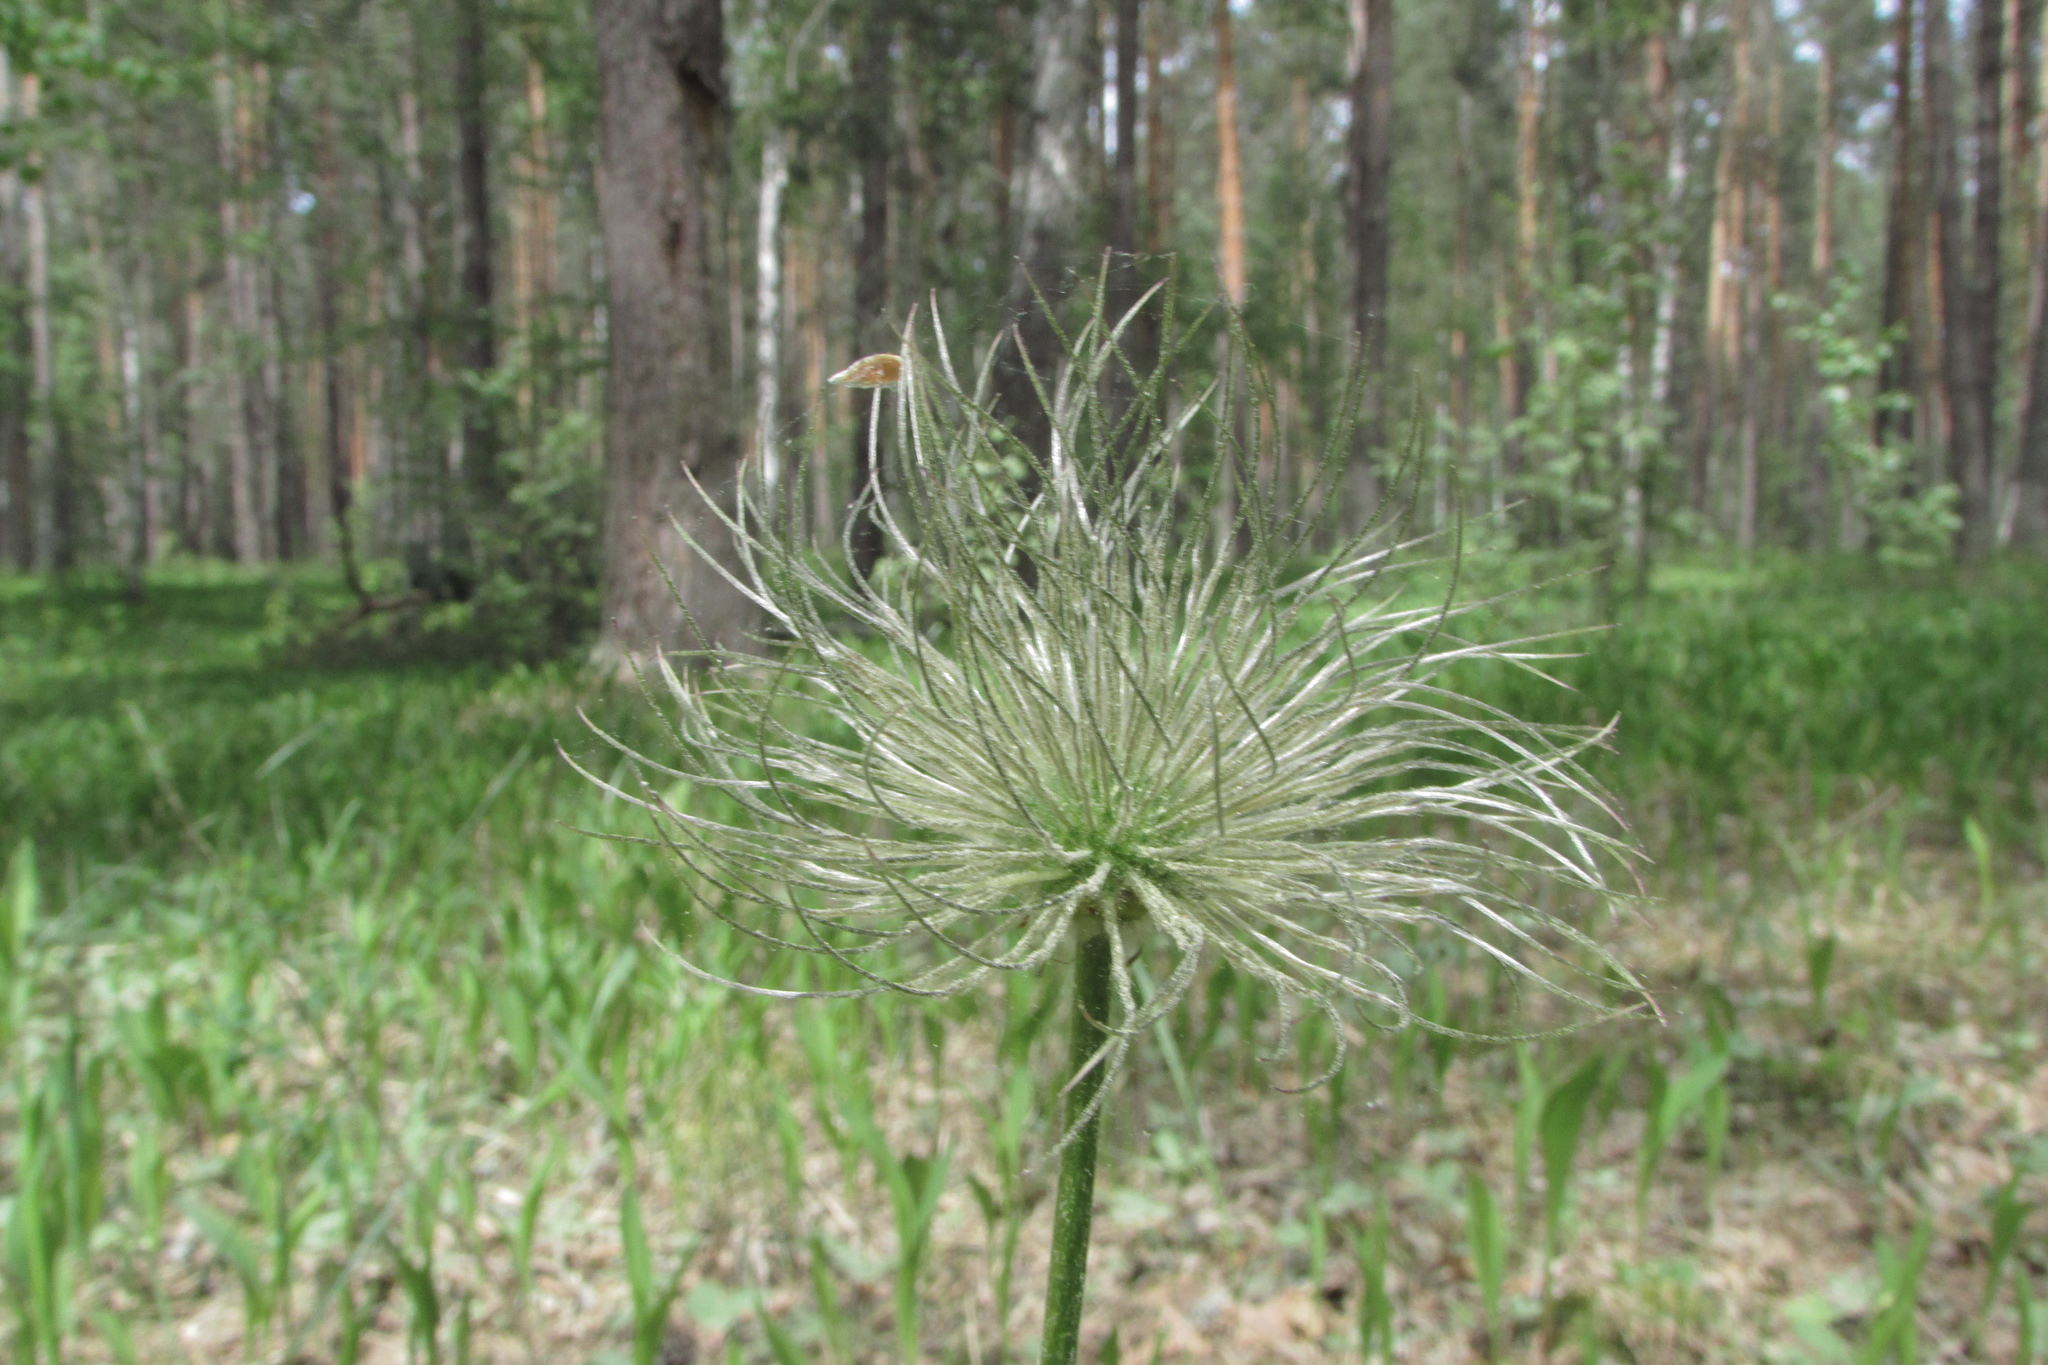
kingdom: Plantae
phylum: Tracheophyta
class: Magnoliopsida
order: Ranunculales
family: Ranunculaceae
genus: Pulsatilla
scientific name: Pulsatilla patens
